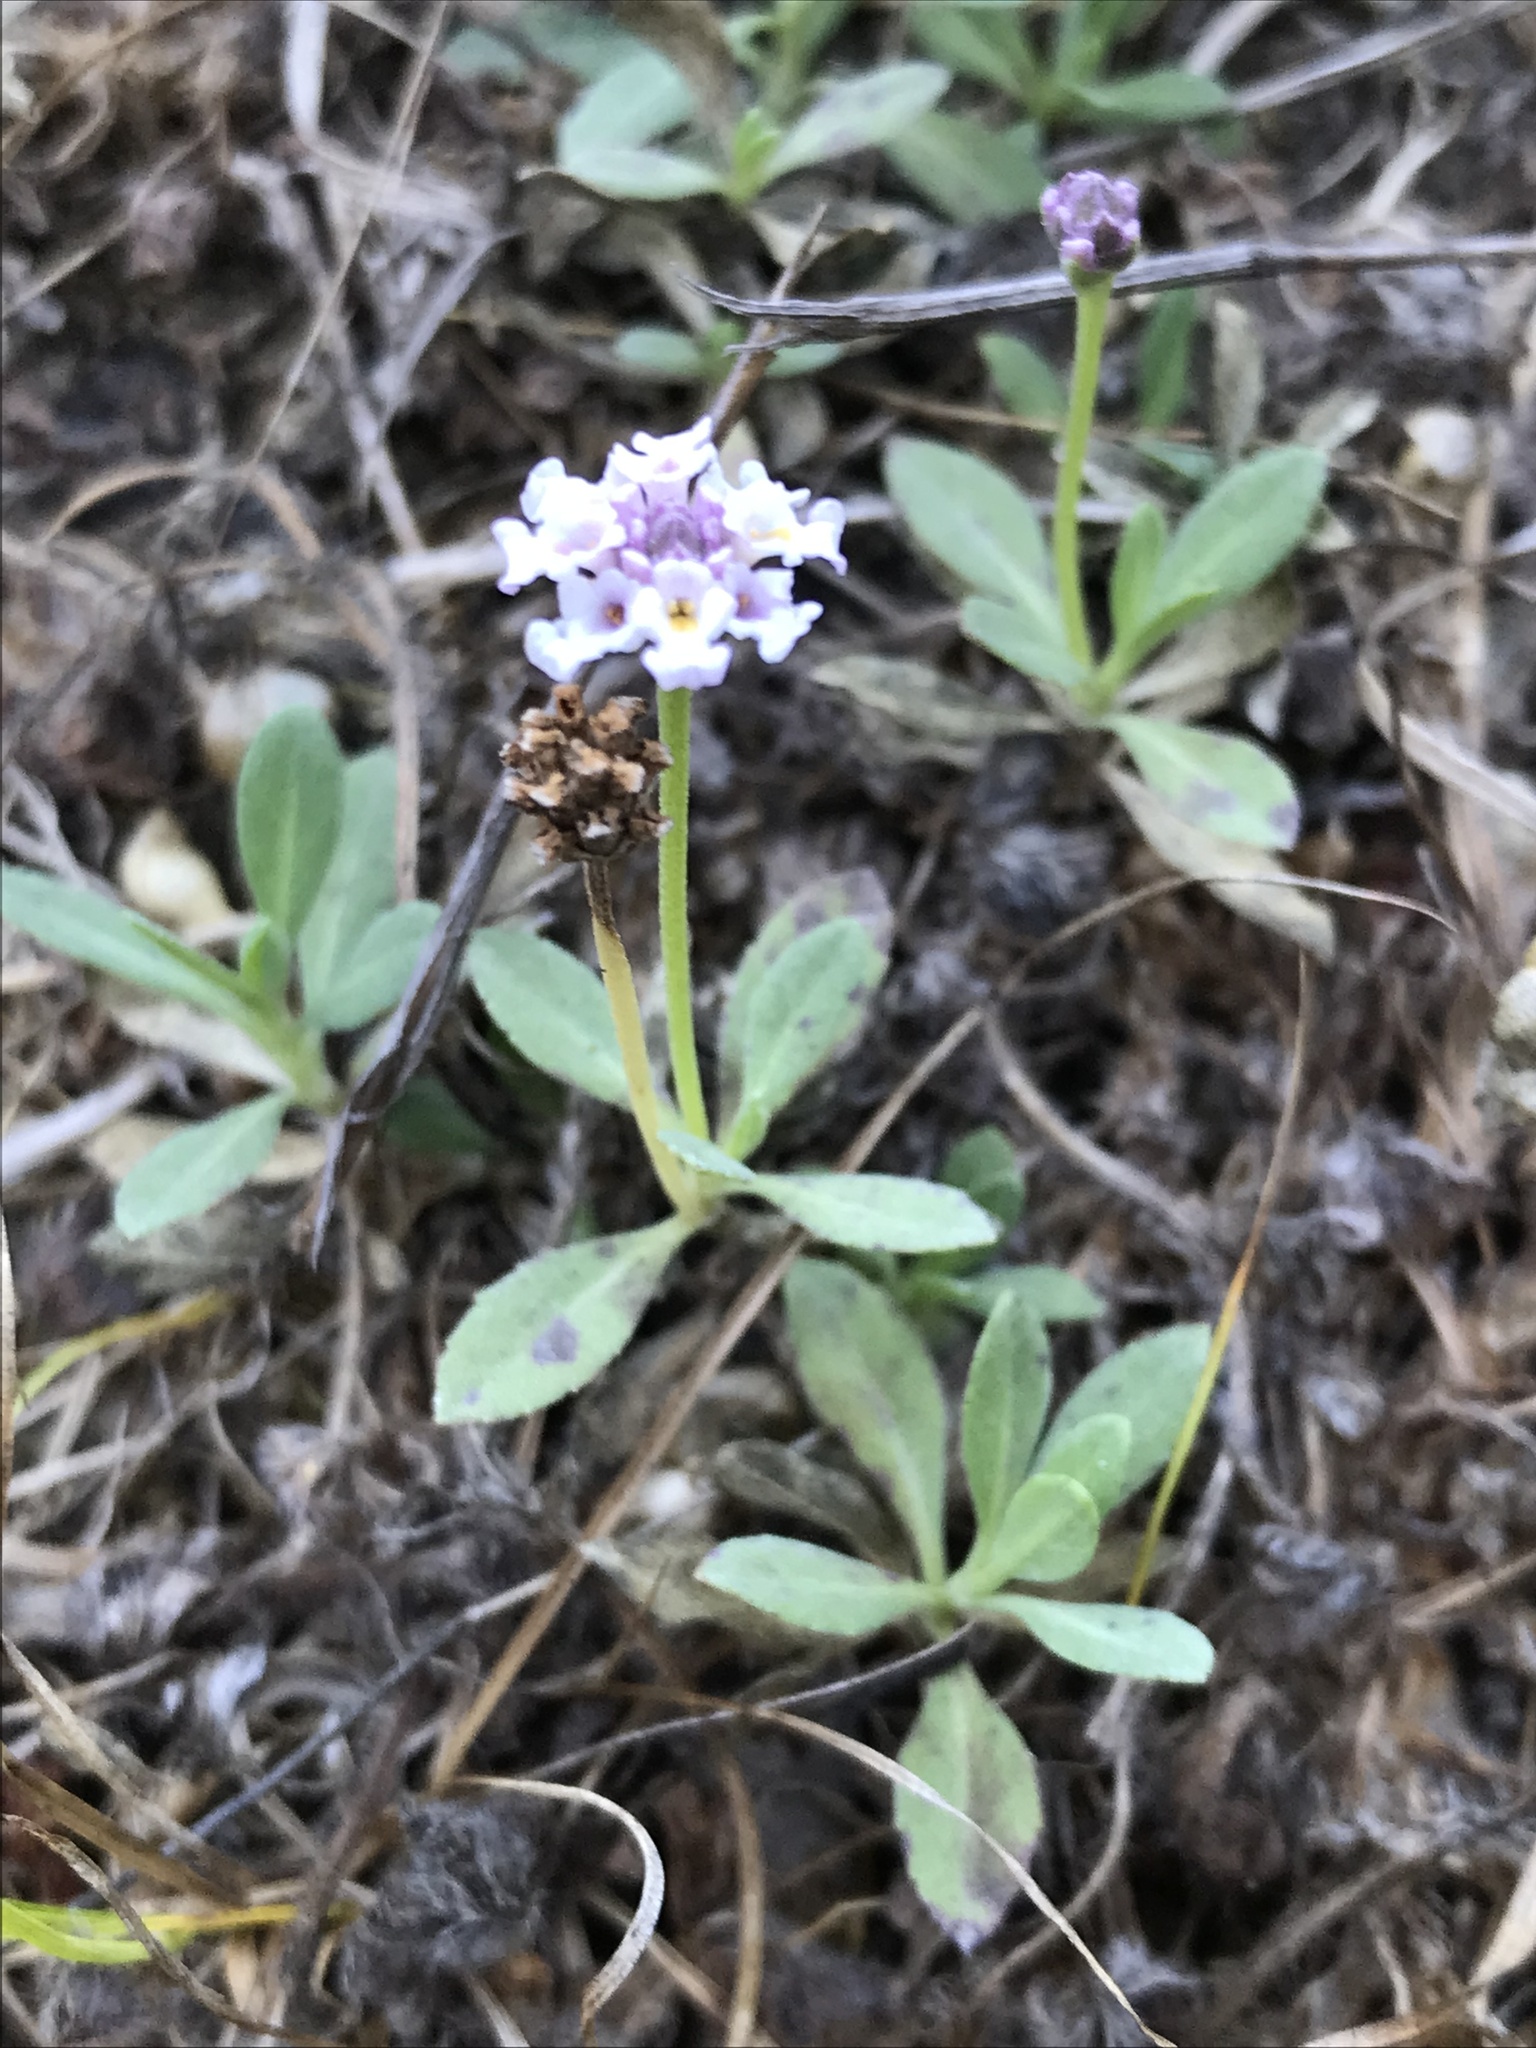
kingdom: Plantae
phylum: Tracheophyta
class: Magnoliopsida
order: Lamiales
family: Verbenaceae
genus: Phyla
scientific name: Phyla nodiflora
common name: Frogfruit
